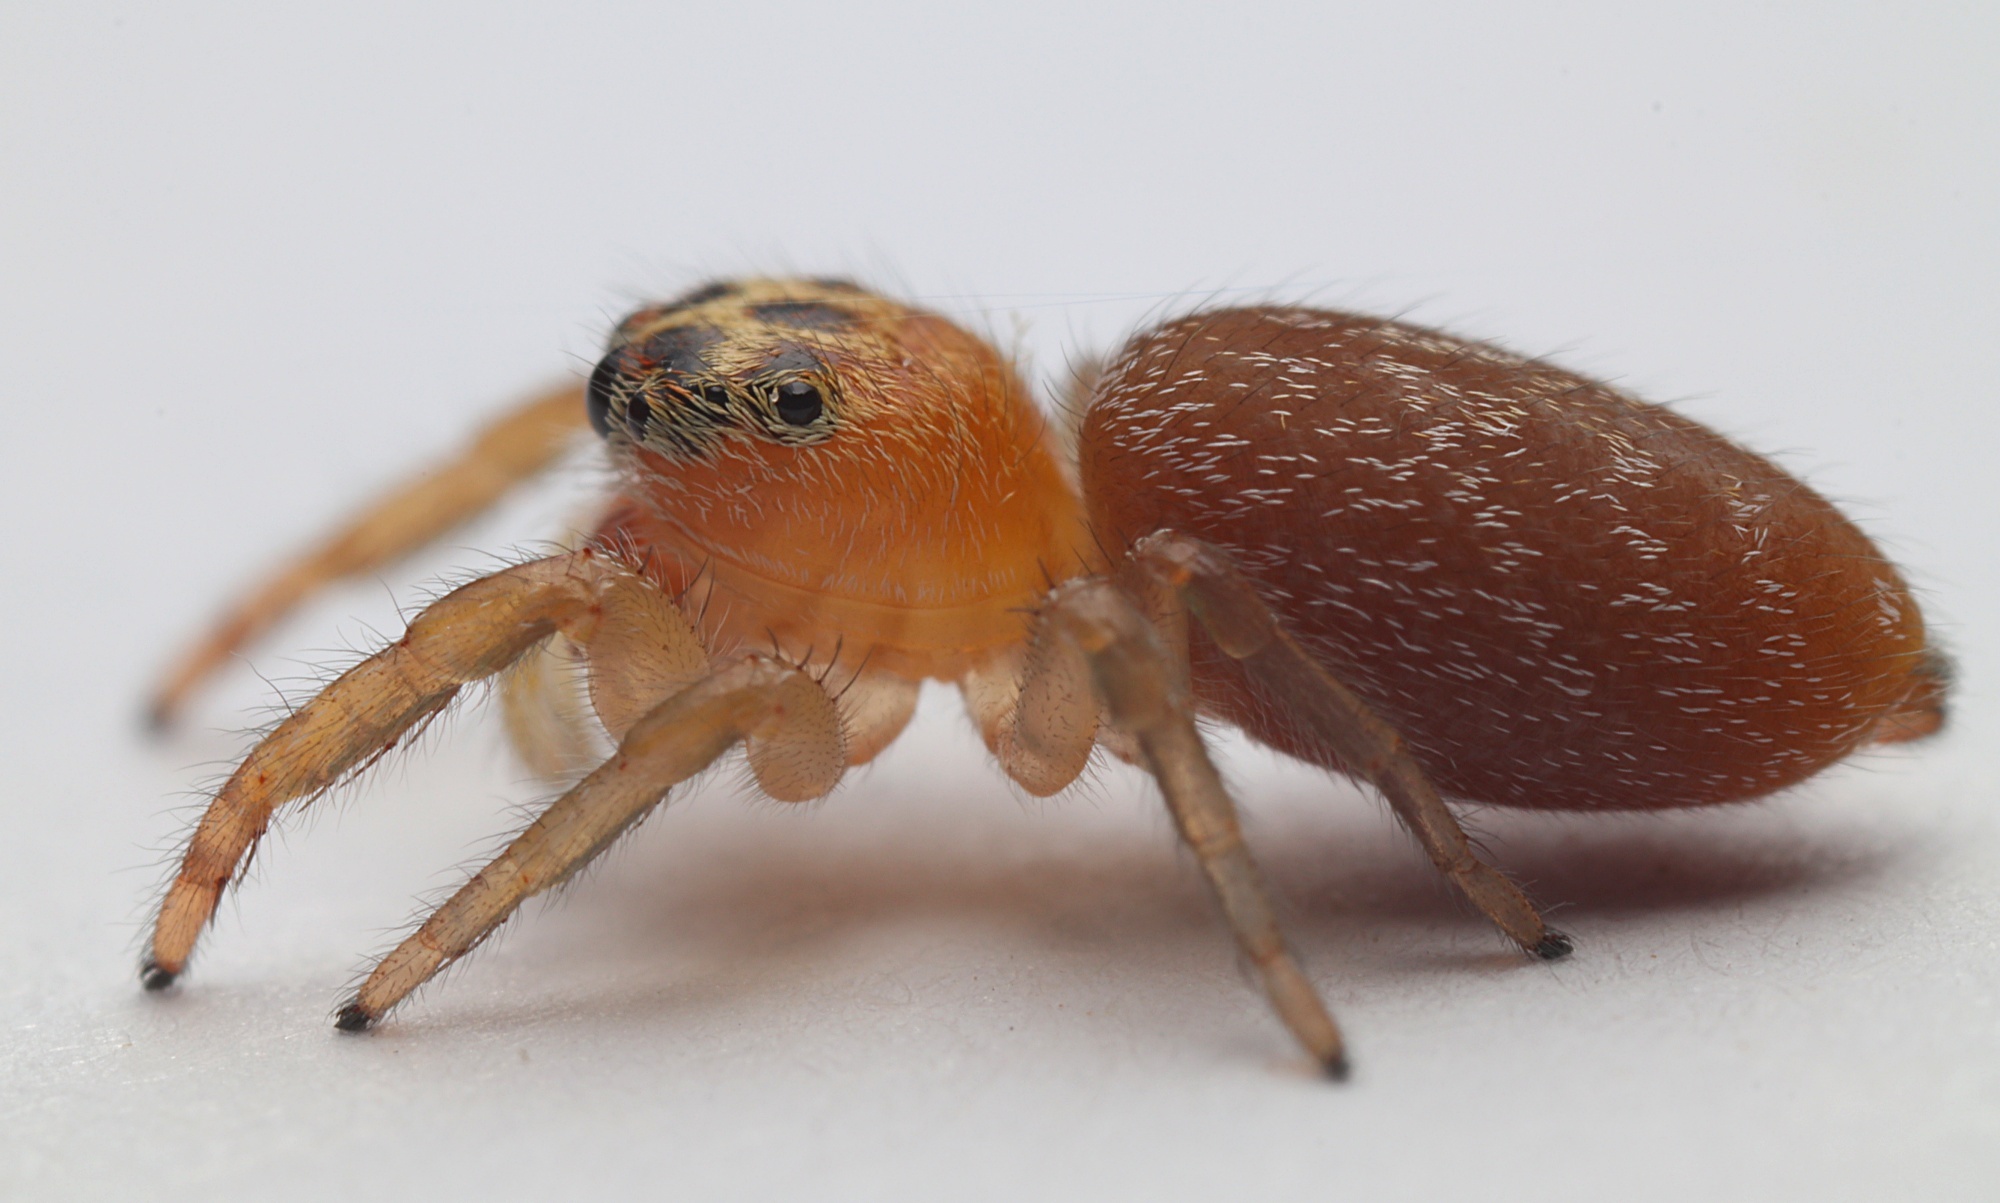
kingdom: Animalia
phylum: Arthropoda
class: Arachnida
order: Araneae
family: Salticidae
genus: Opisthoncus
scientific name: Opisthoncus polyphemus
